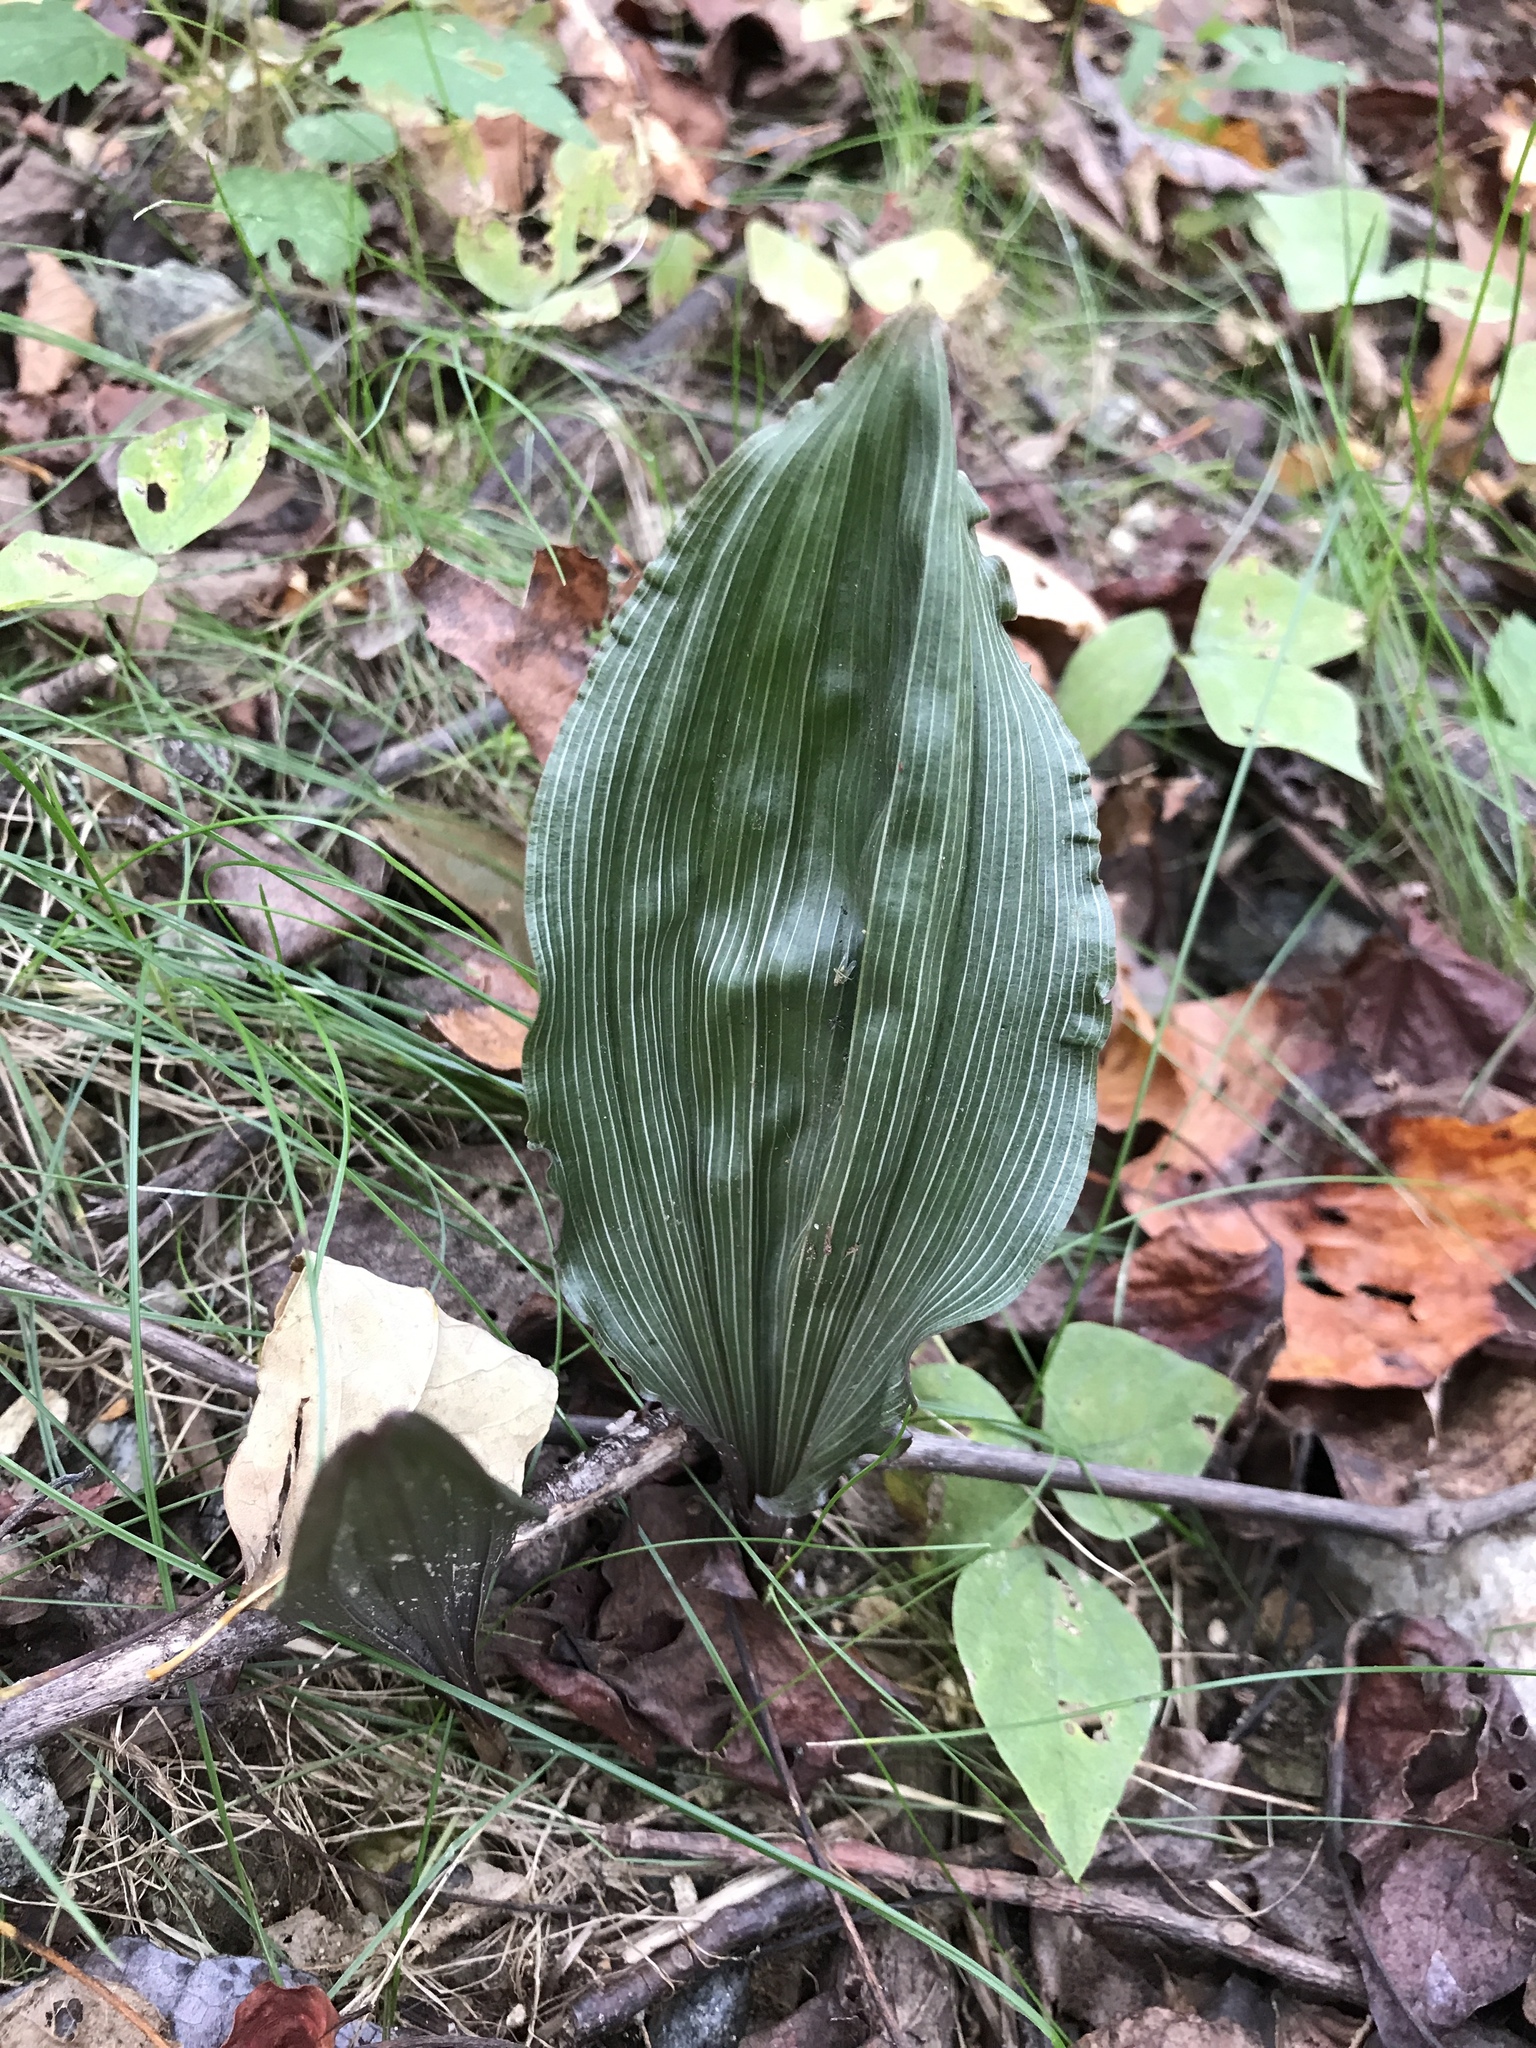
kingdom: Plantae
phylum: Tracheophyta
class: Liliopsida
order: Asparagales
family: Orchidaceae
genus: Aplectrum
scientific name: Aplectrum hyemale
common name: Adam-and-eve
